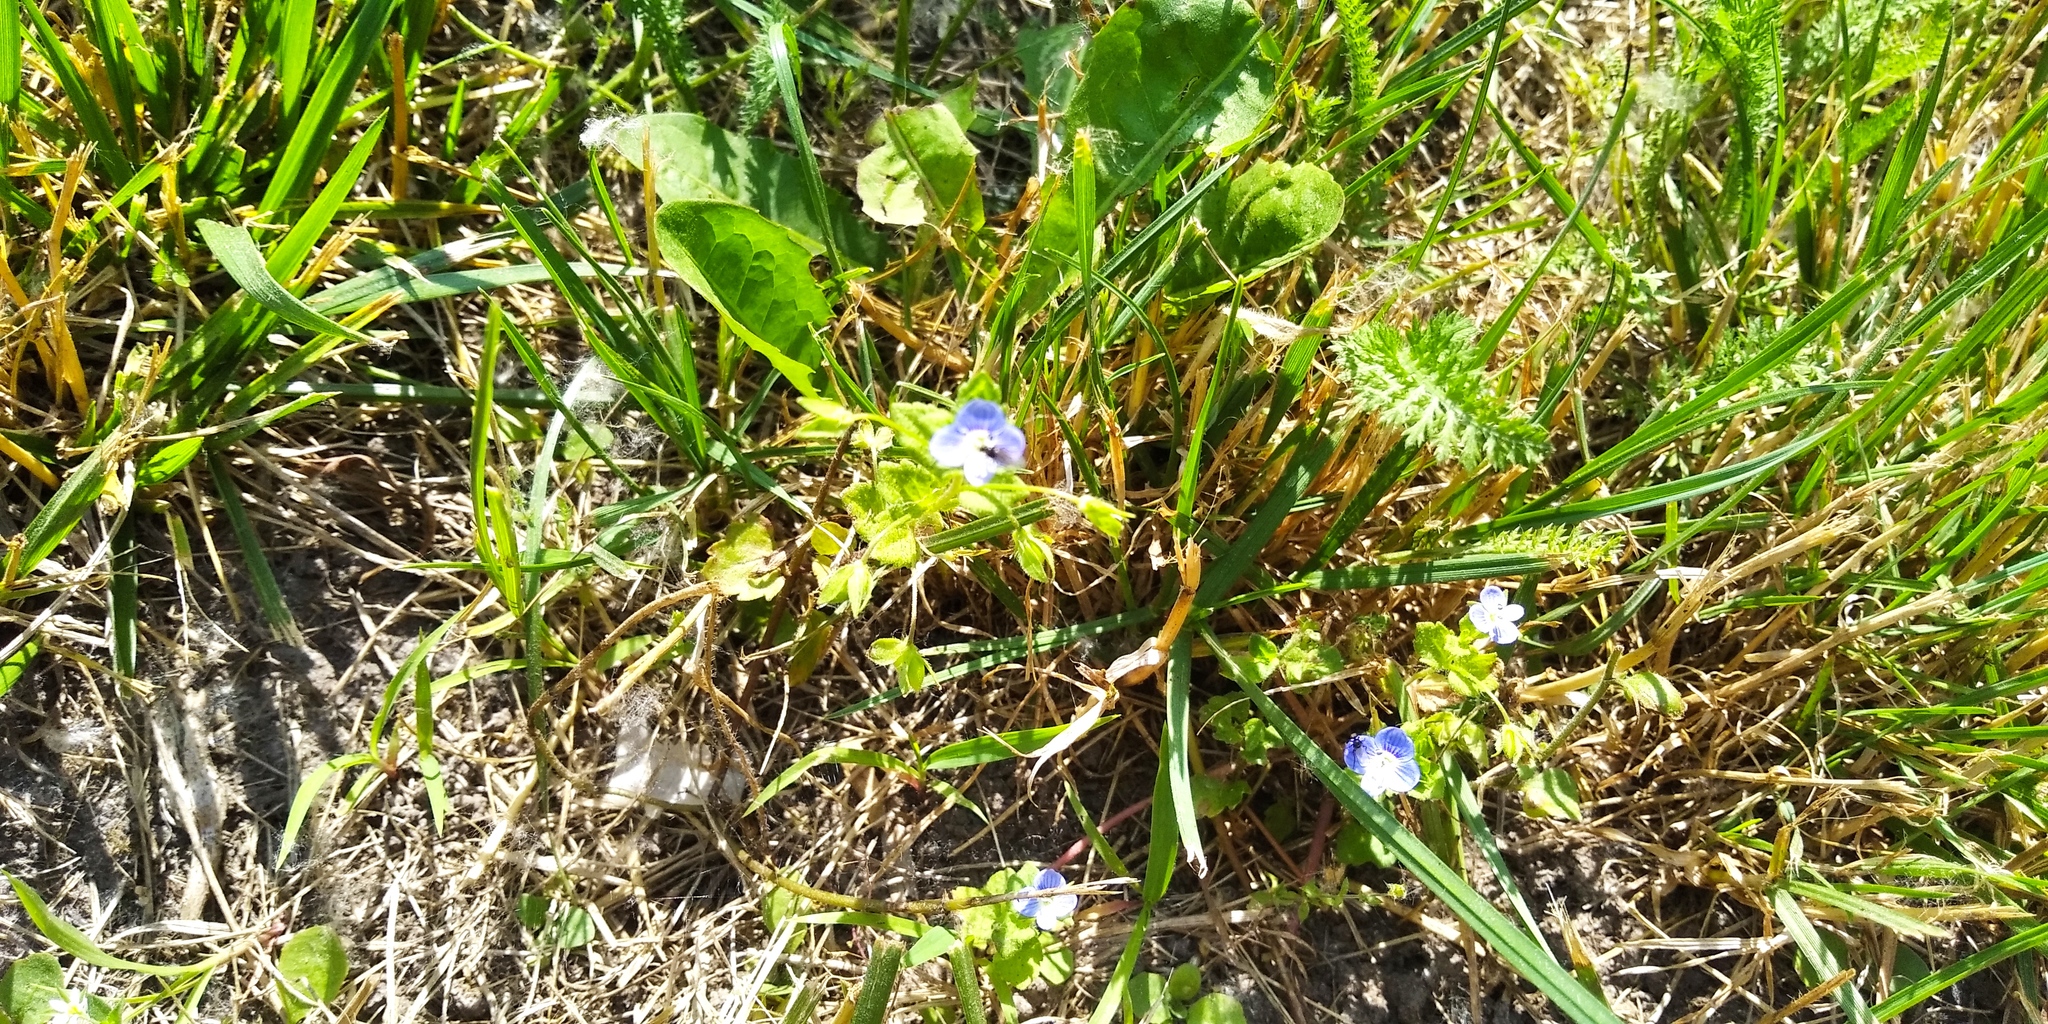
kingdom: Plantae
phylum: Tracheophyta
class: Magnoliopsida
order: Lamiales
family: Plantaginaceae
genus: Veronica
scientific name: Veronica persica
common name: Common field-speedwell
